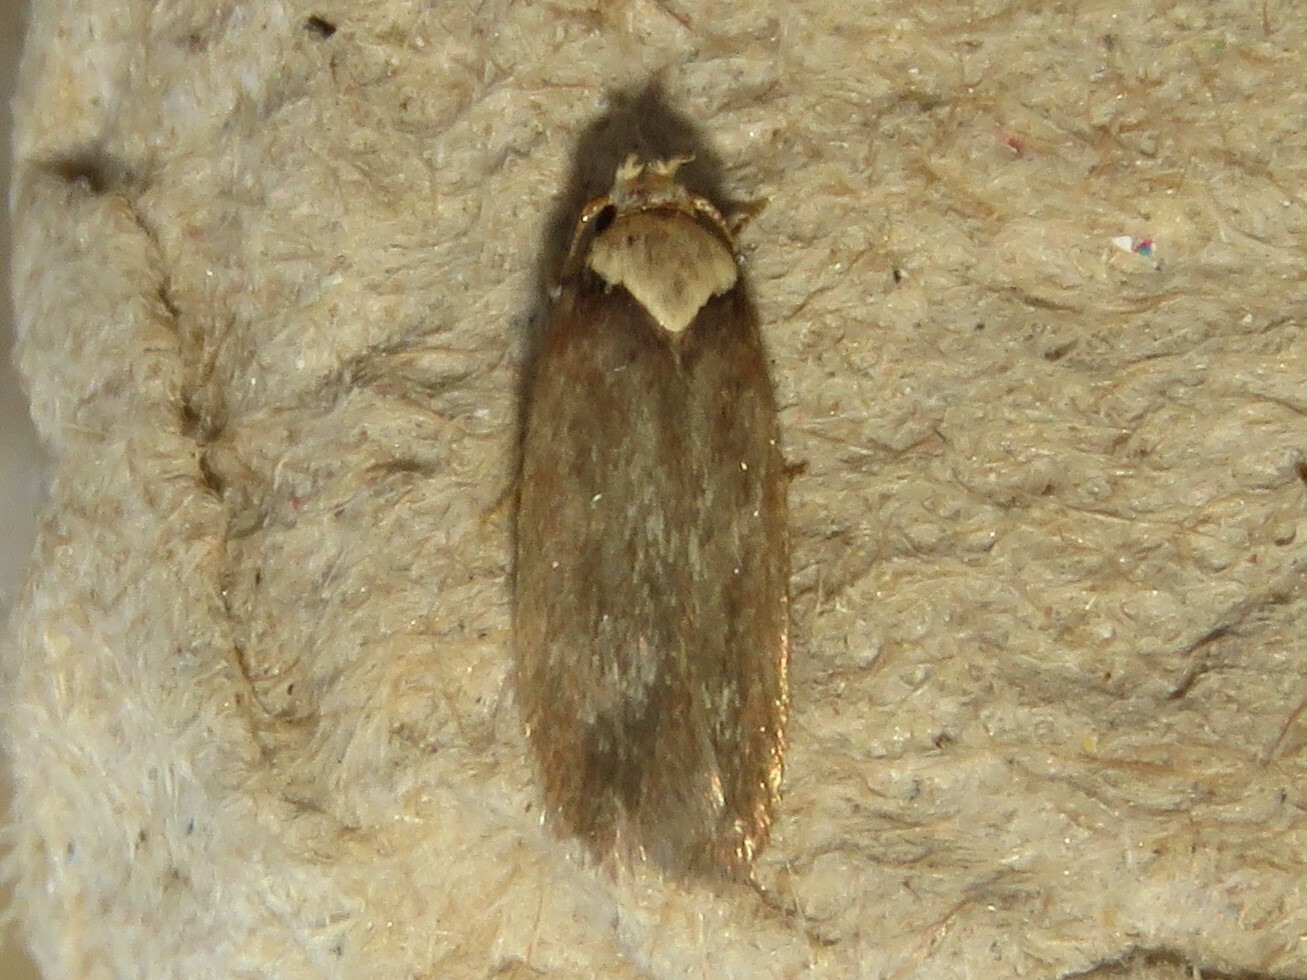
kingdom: Animalia
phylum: Arthropoda
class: Insecta
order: Lepidoptera
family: Depressariidae
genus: Depressaria
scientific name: Depressaria depressana
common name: Lost flat-body
